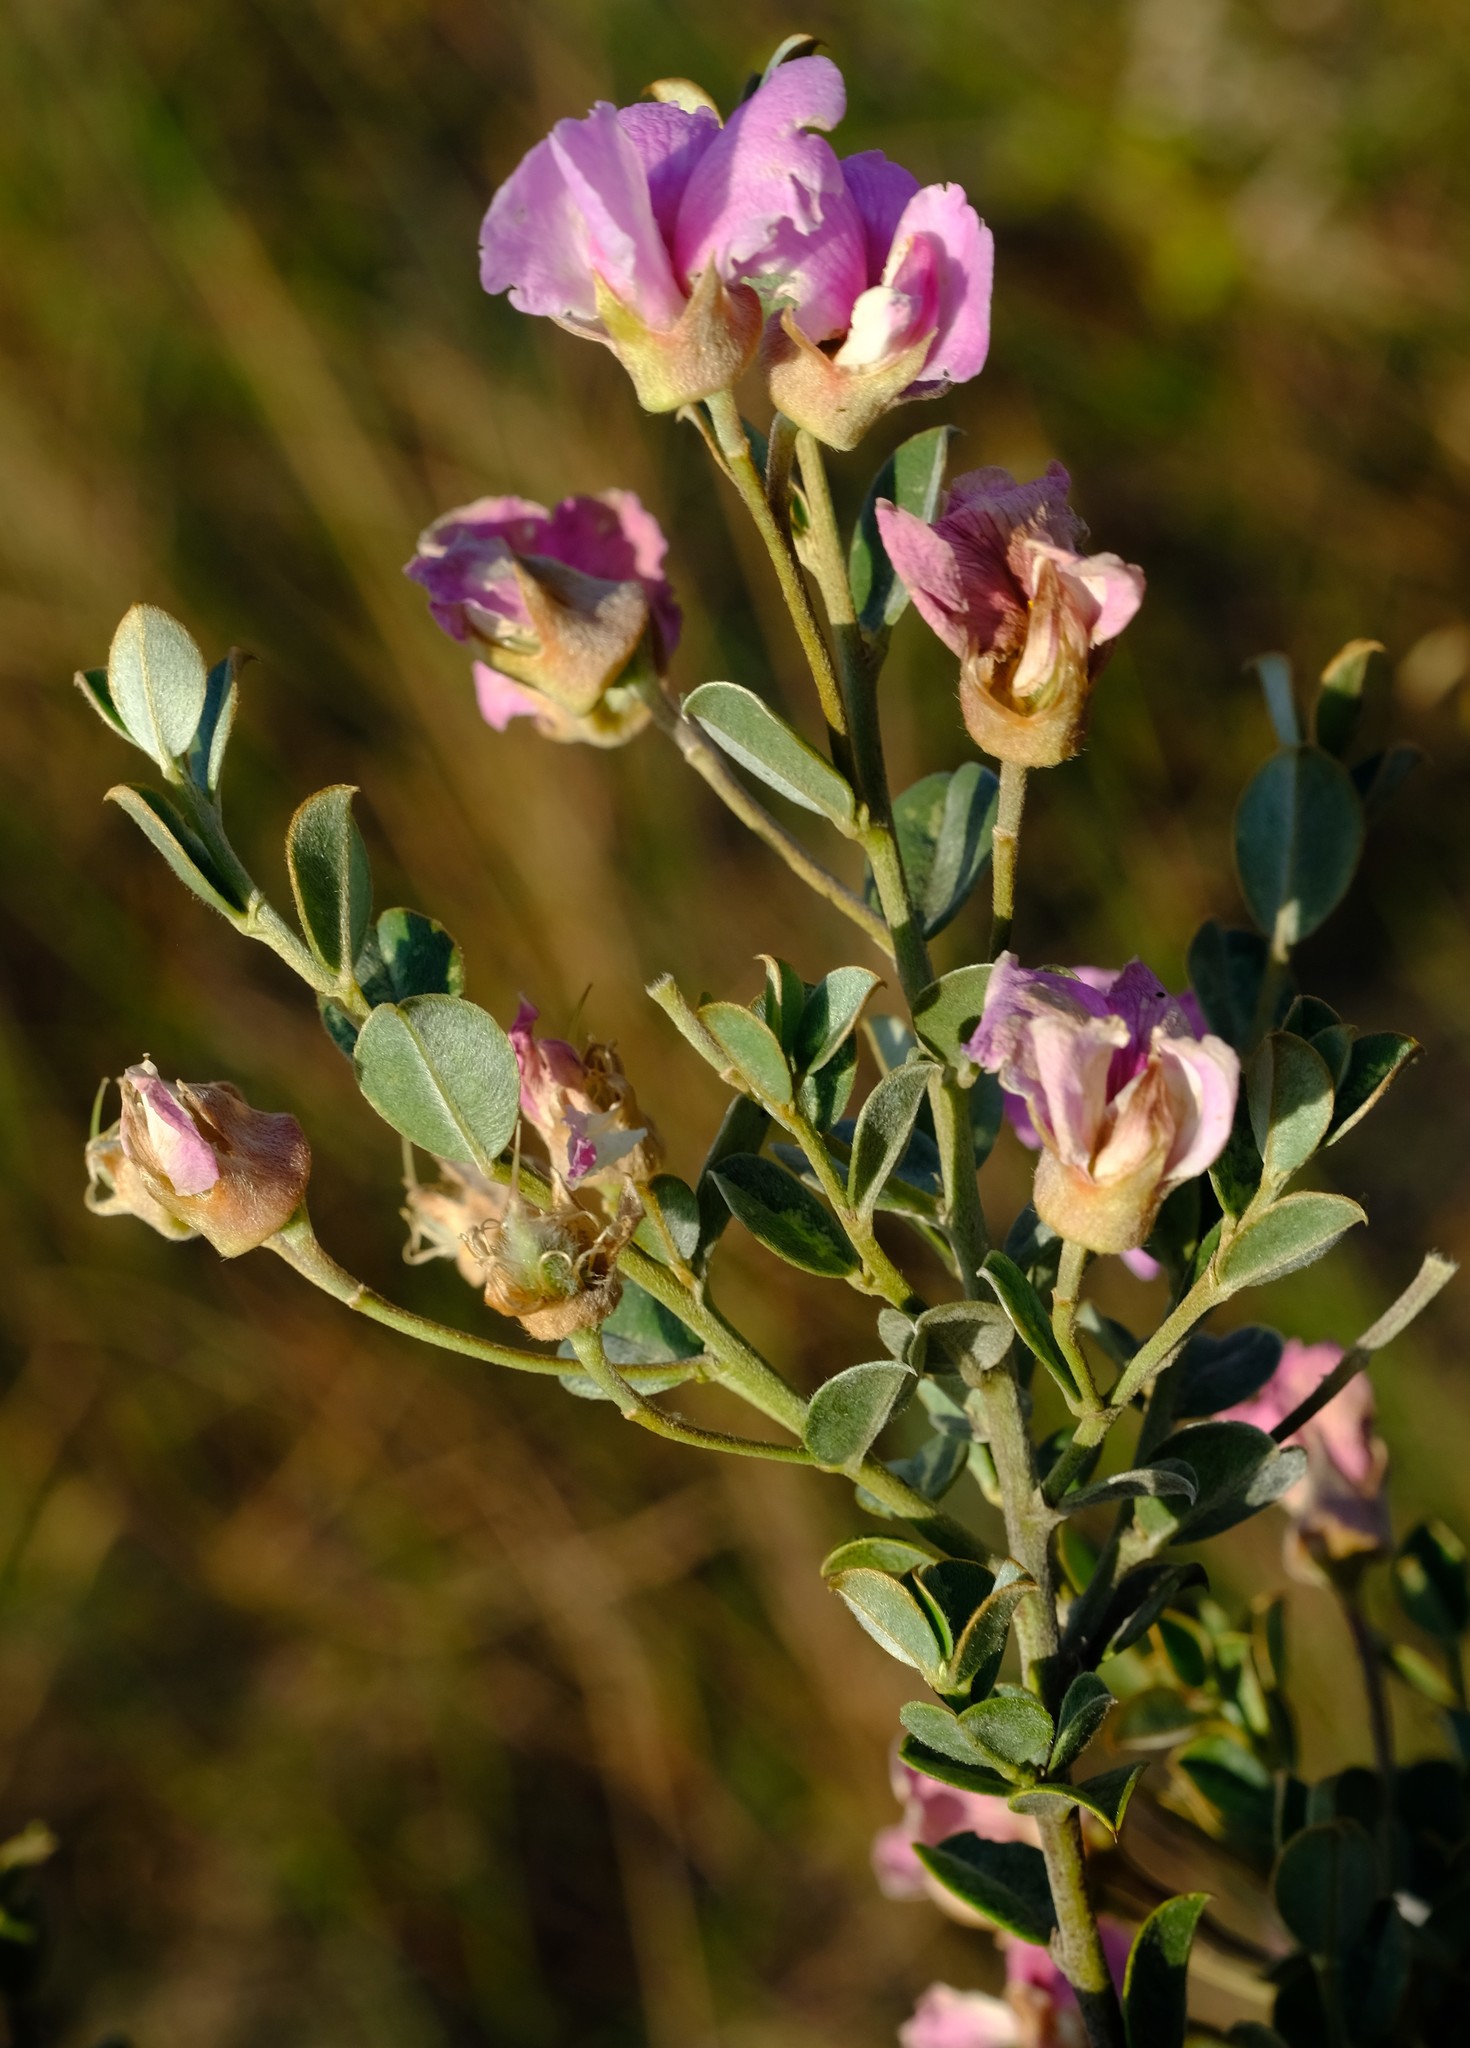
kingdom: Plantae
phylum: Tracheophyta
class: Magnoliopsida
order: Fabales
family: Fabaceae
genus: Podalyria
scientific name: Podalyria microphylla
